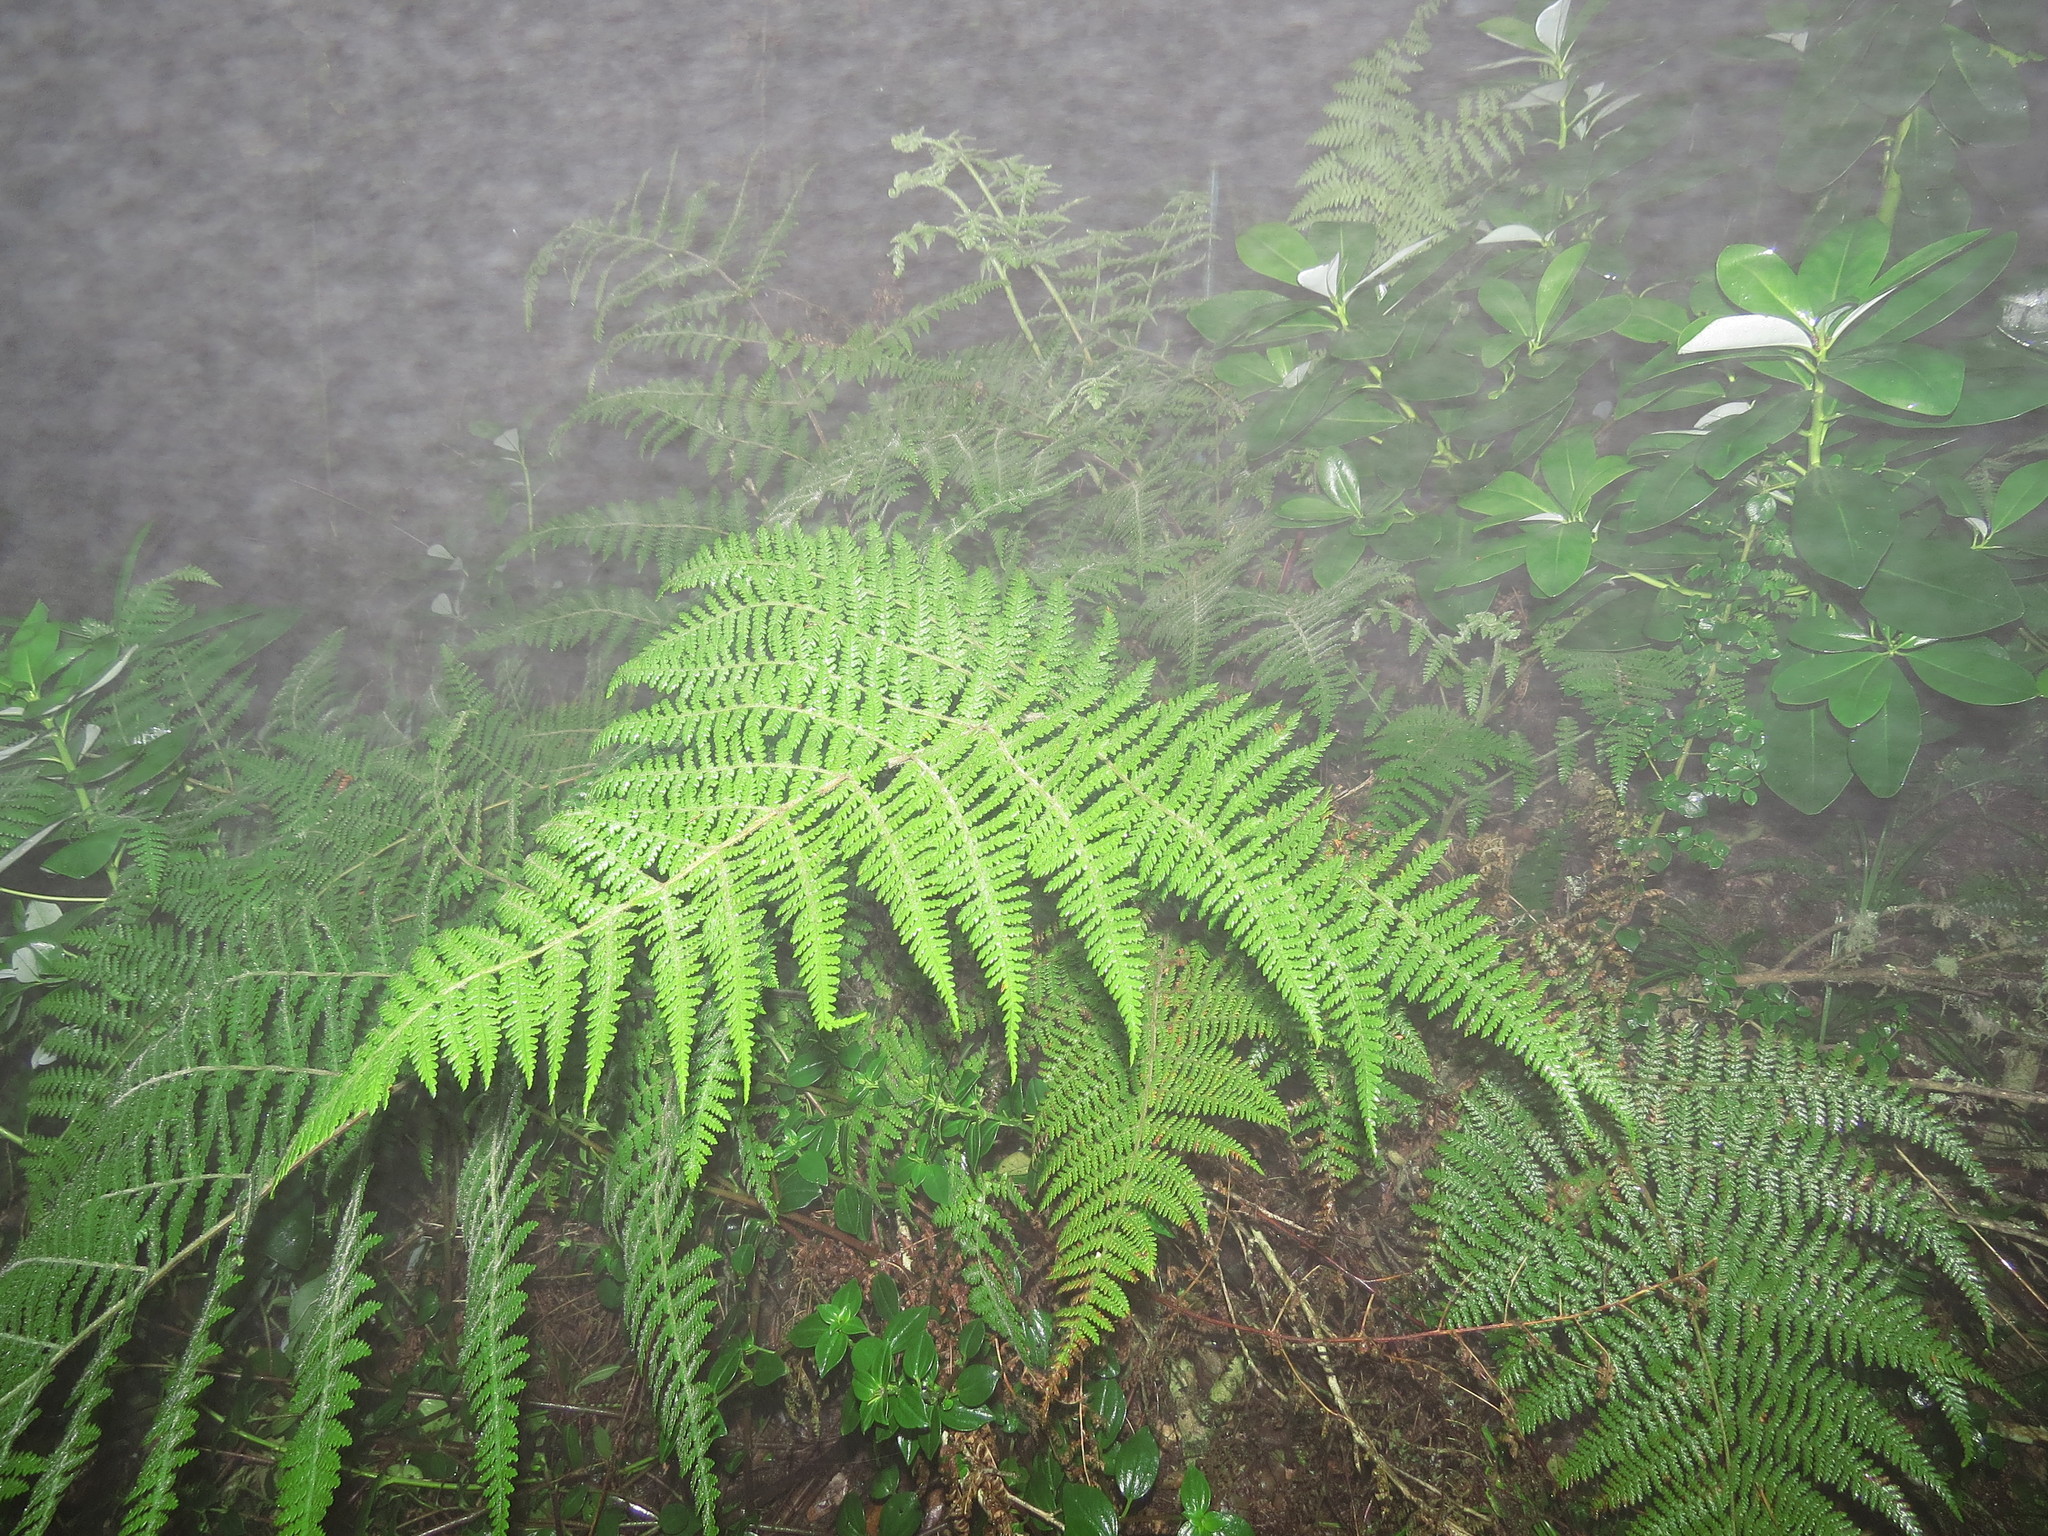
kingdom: Plantae
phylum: Tracheophyta
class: Polypodiopsida
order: Polypodiales
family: Dennstaedtiaceae
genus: Hypolepis
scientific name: Hypolepis poeppigii
